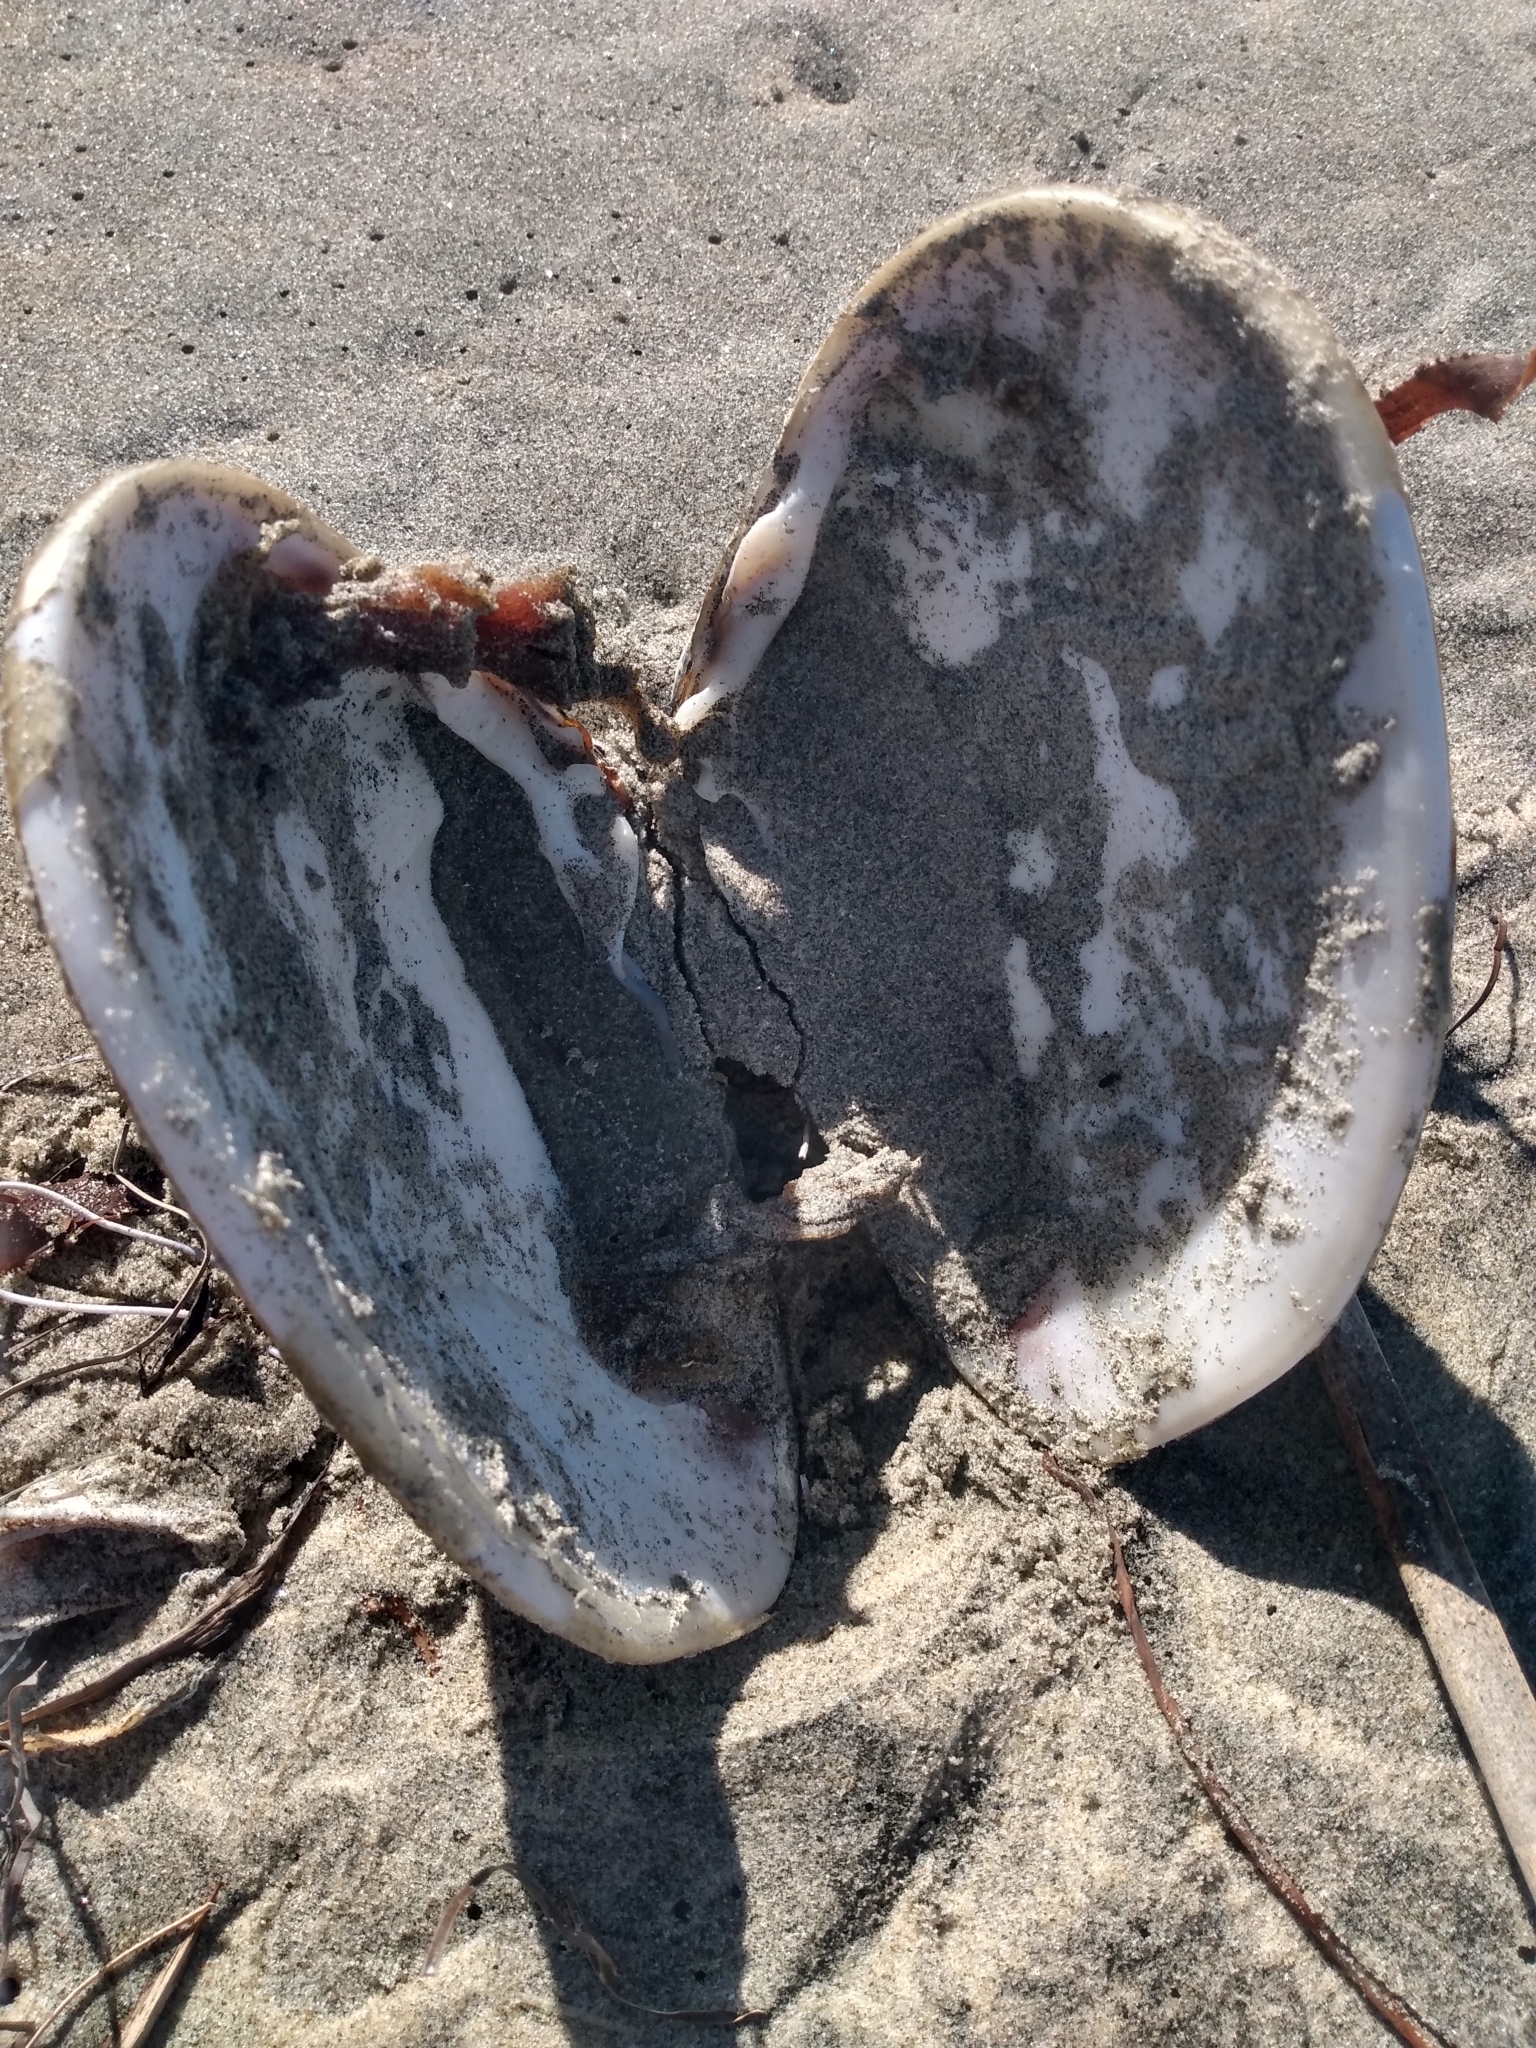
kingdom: Animalia
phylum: Mollusca
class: Bivalvia
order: Venerida
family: Veneridae
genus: Tivela
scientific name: Tivela stultorum
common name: Pismo clam
